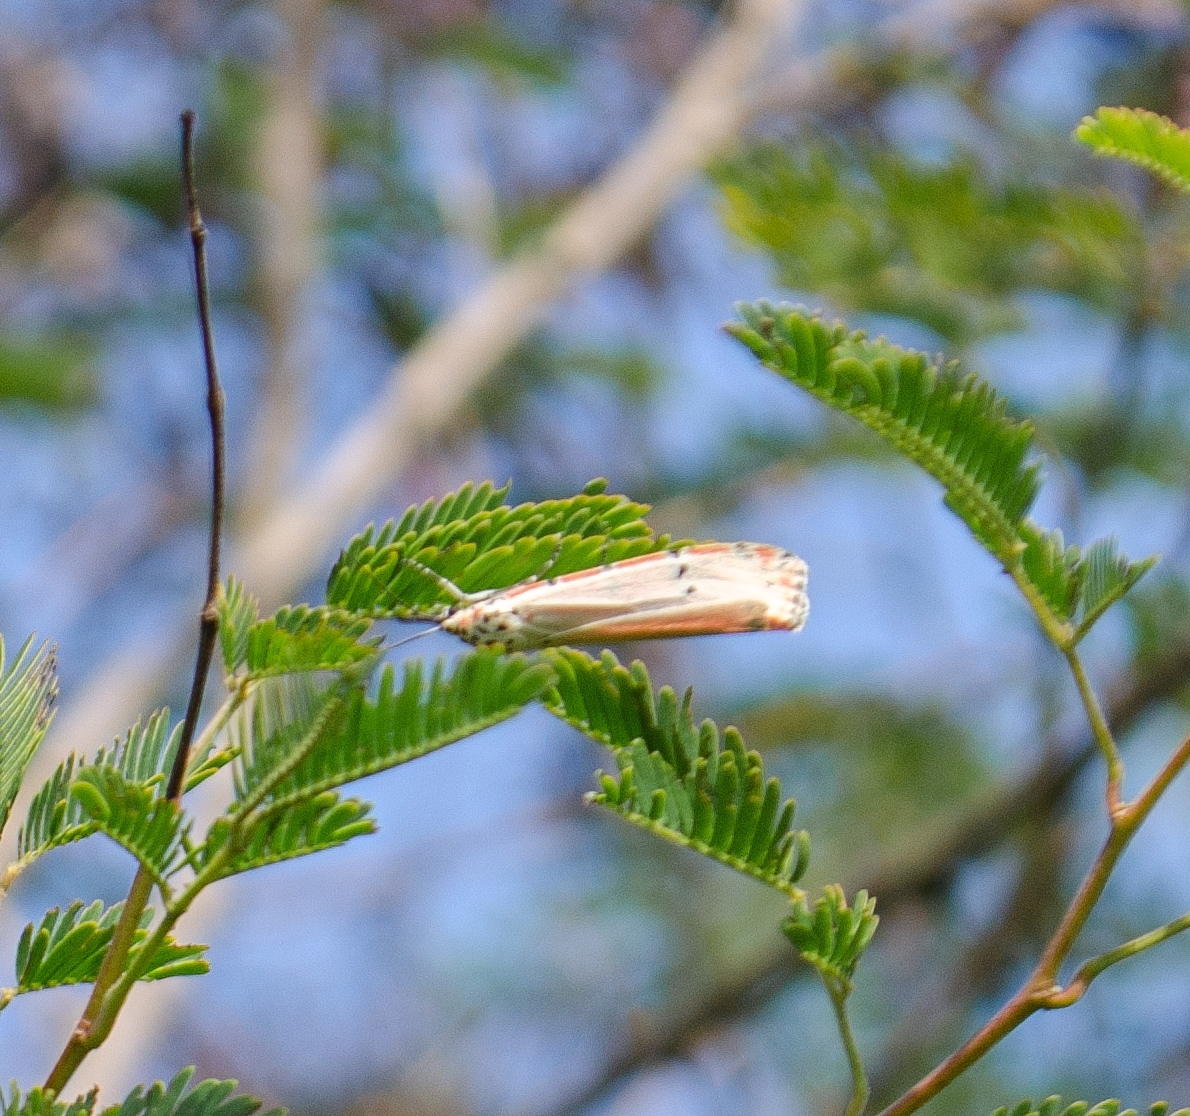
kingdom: Animalia
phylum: Arthropoda
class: Insecta
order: Lepidoptera
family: Erebidae
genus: Utetheisa
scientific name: Utetheisa ornatrix
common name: Beautiful utetheisa
